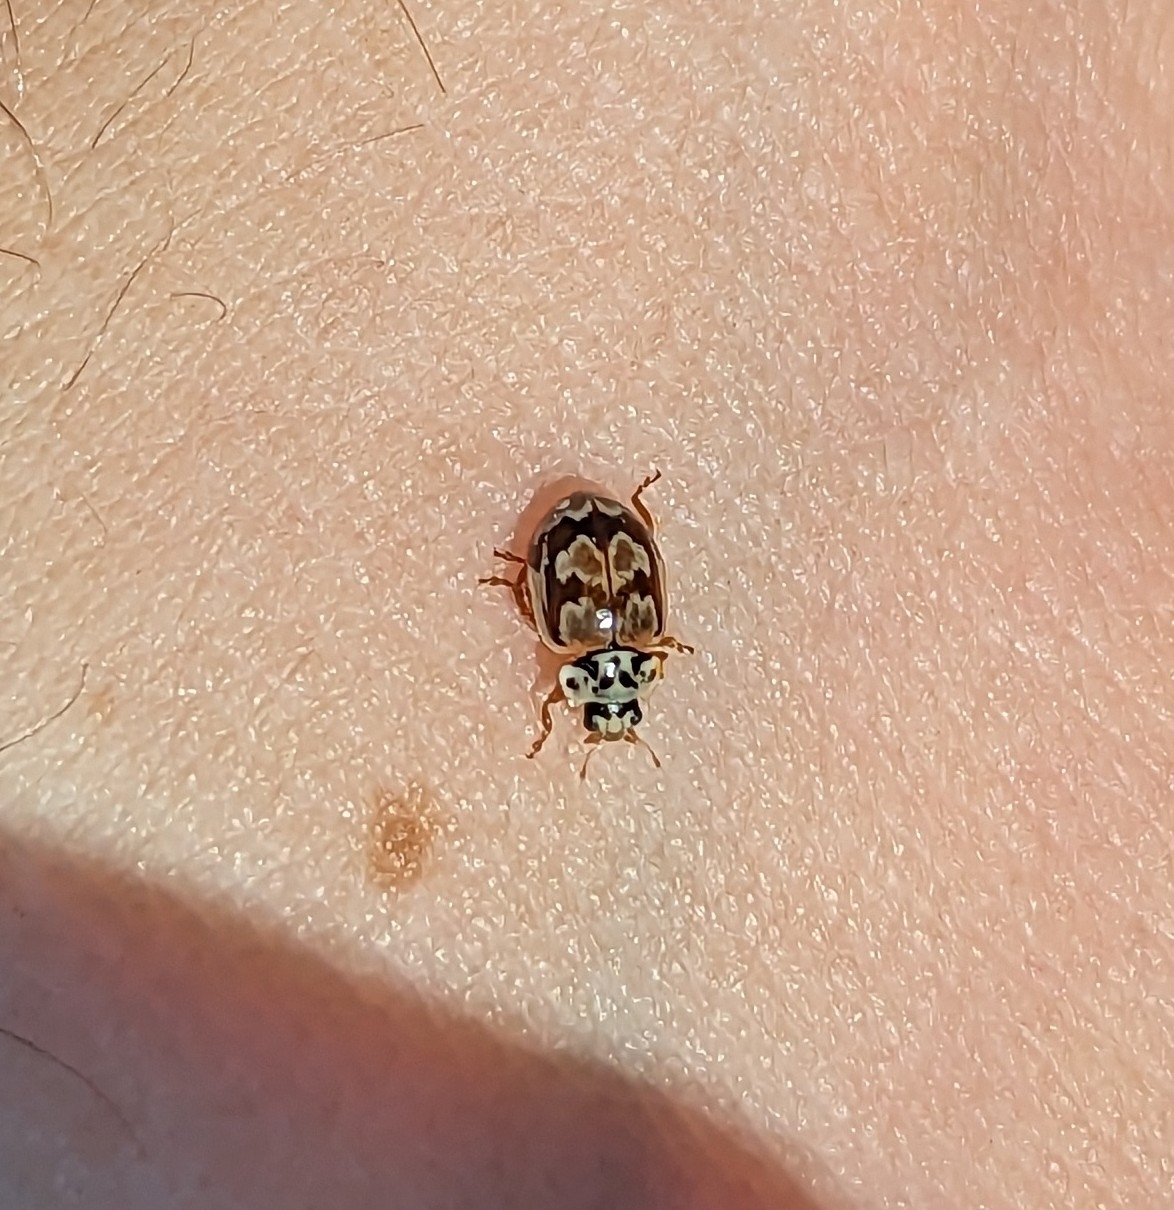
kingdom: Animalia
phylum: Arthropoda
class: Insecta
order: Coleoptera
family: Coccinellidae
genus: Mulsantina
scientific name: Mulsantina picta
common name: Painted ladybird
